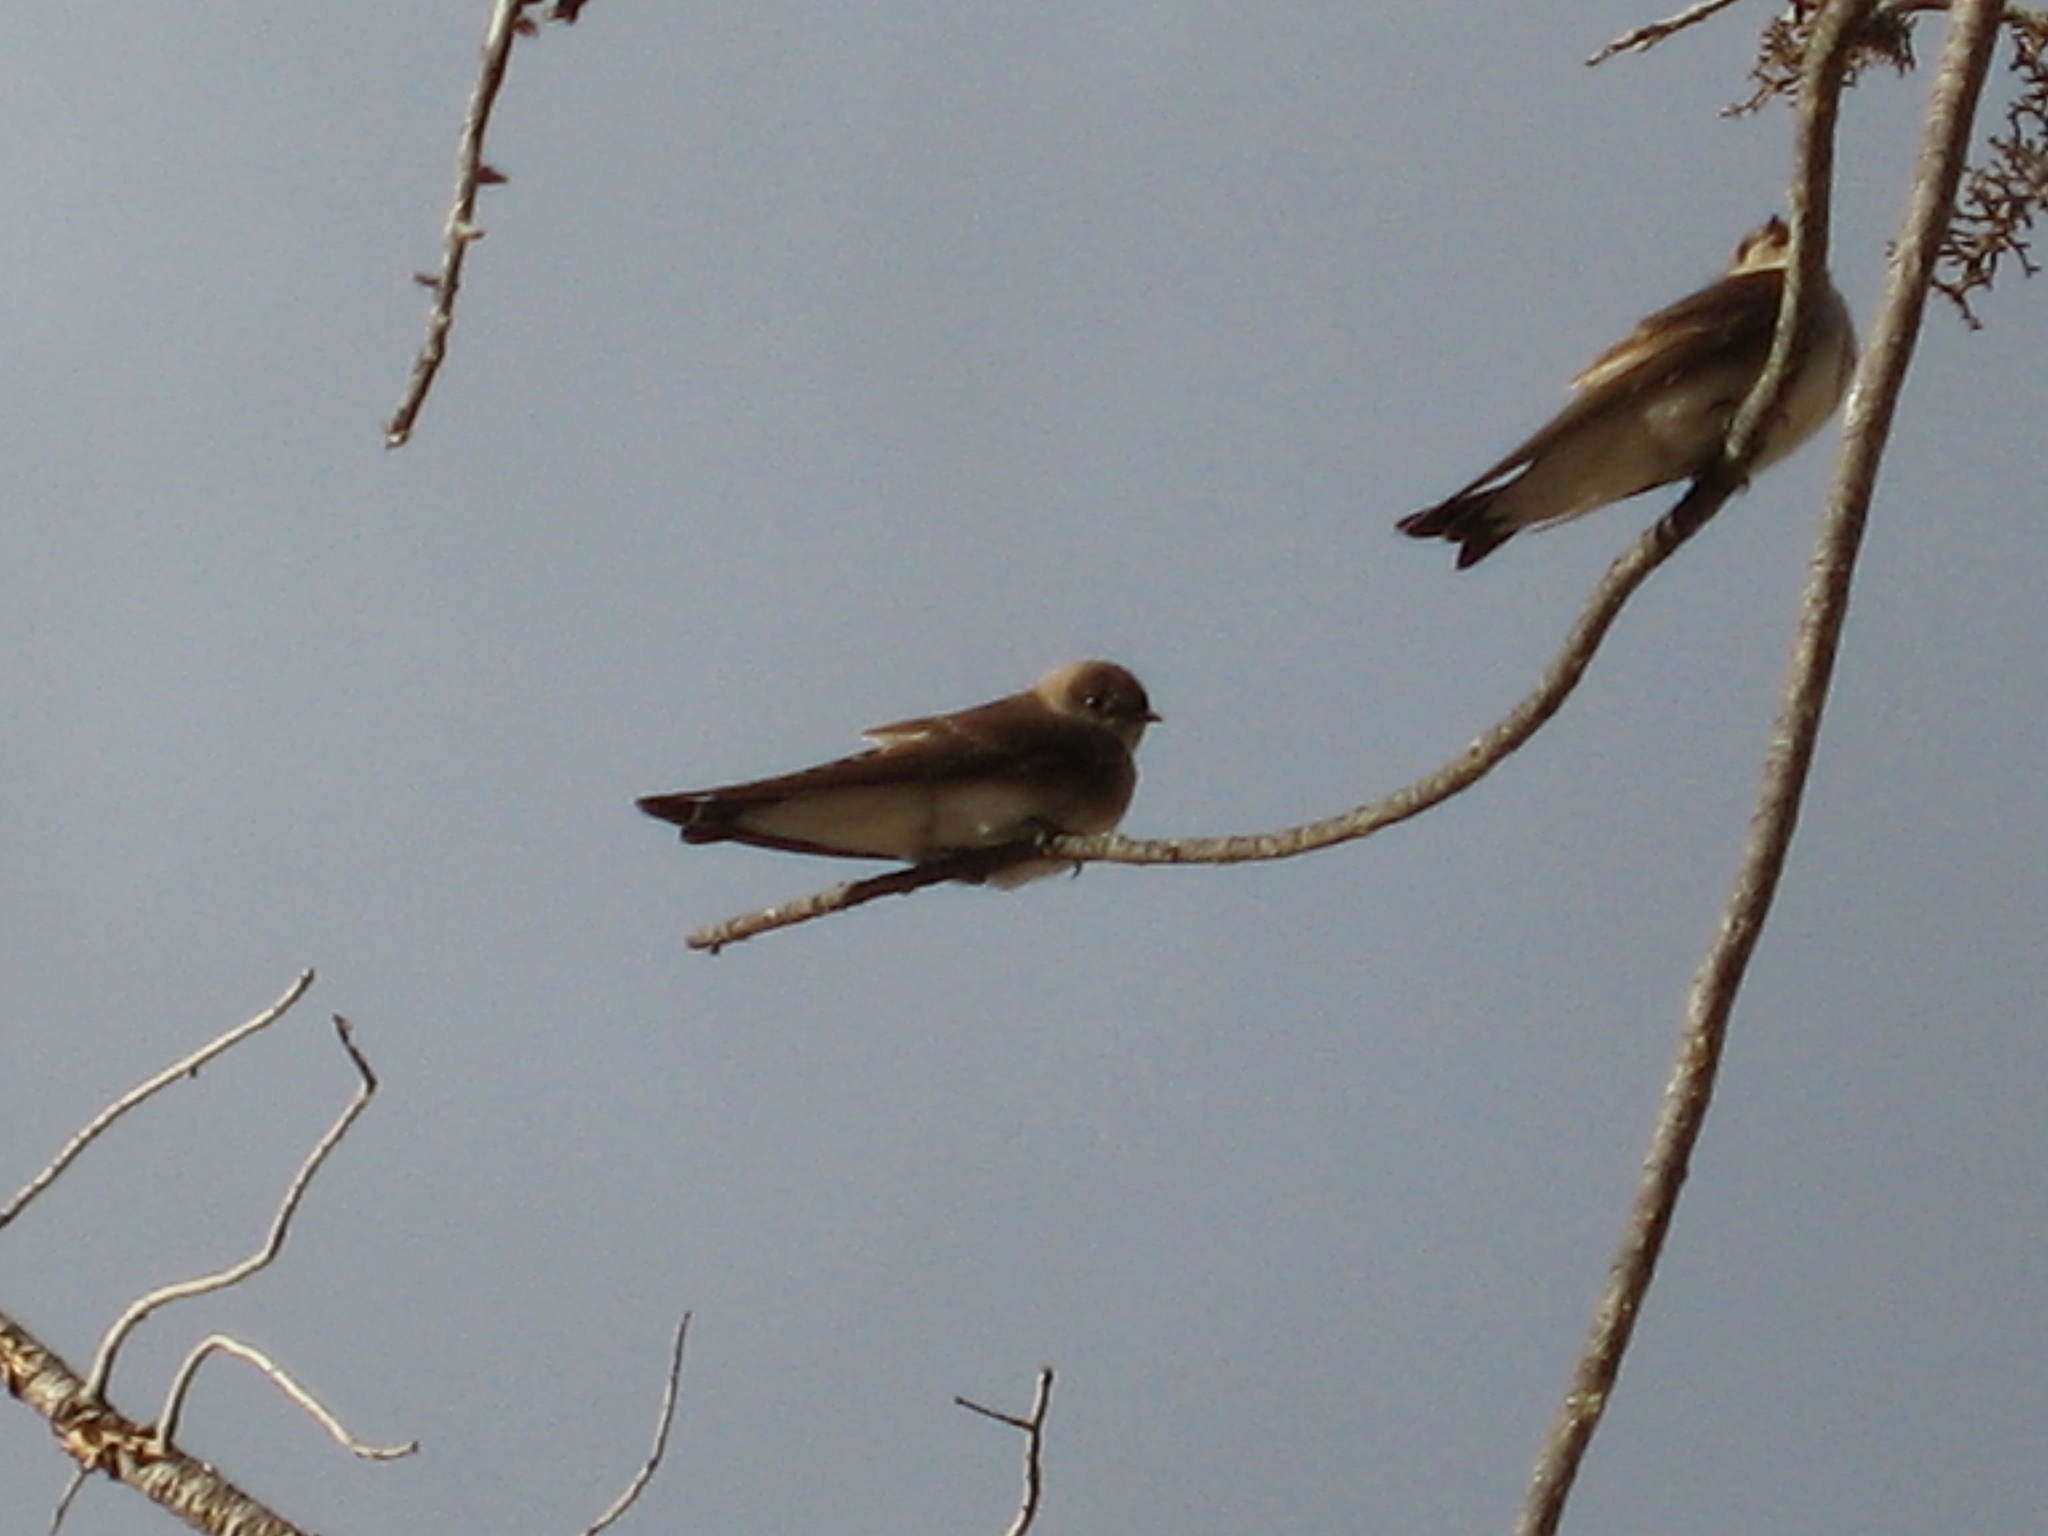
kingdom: Animalia
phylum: Chordata
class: Aves
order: Passeriformes
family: Hirundinidae
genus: Stelgidopteryx
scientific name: Stelgidopteryx serripennis
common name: Northern rough-winged swallow
